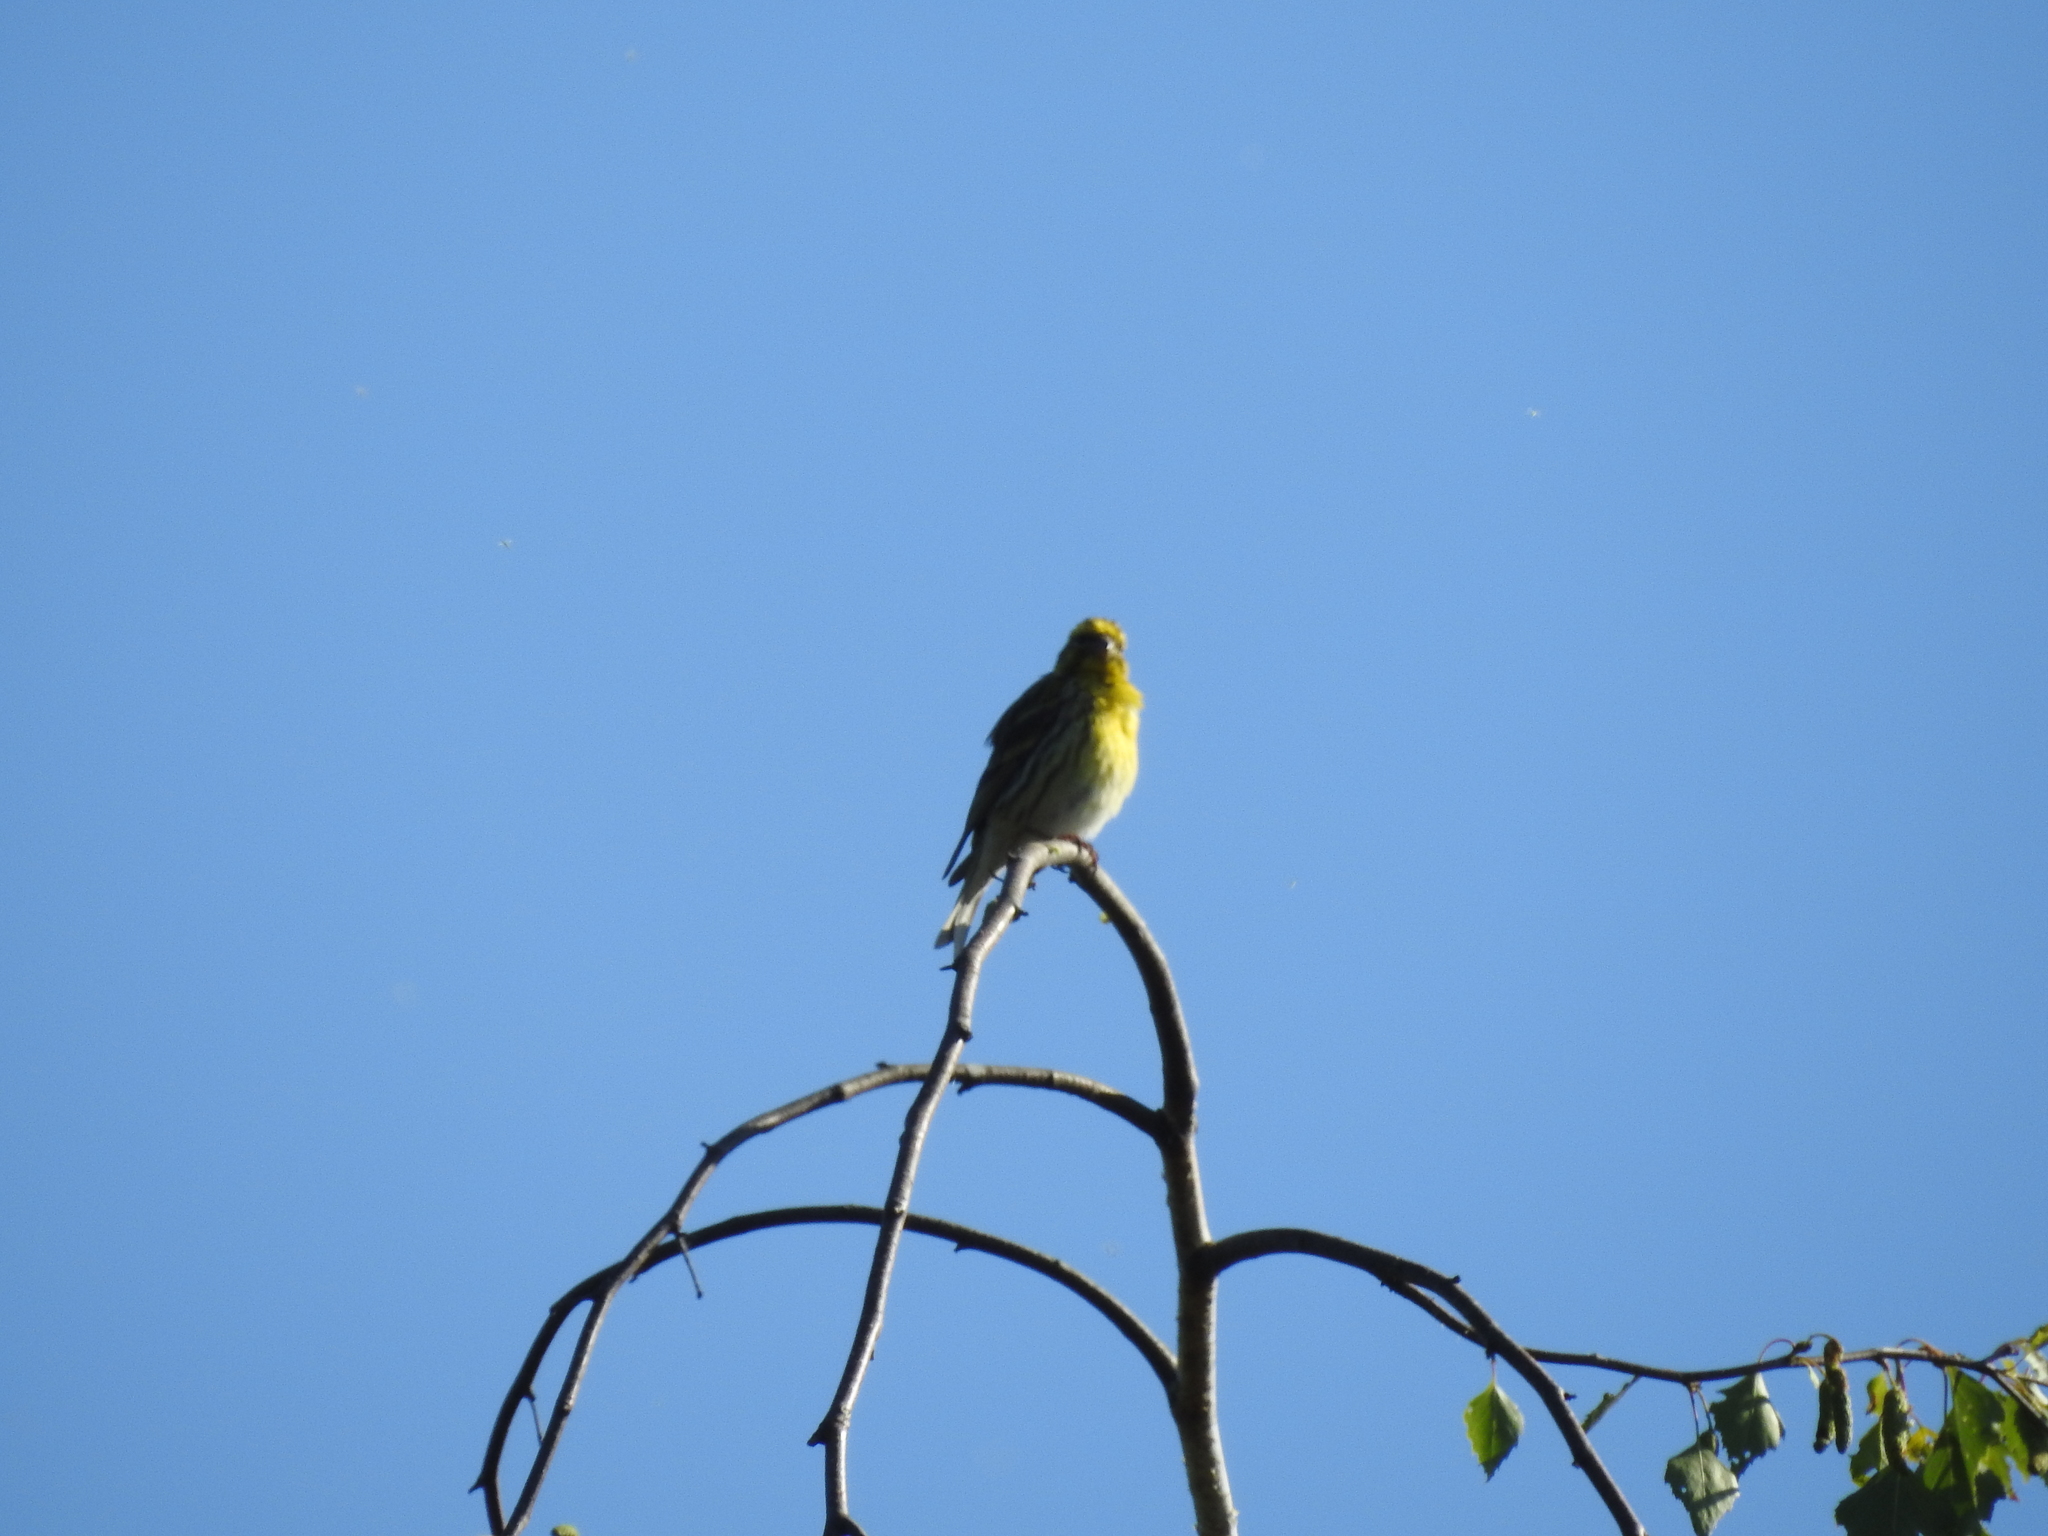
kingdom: Animalia
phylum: Chordata
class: Aves
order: Passeriformes
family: Fringillidae
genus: Serinus
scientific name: Serinus serinus
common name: European serin
